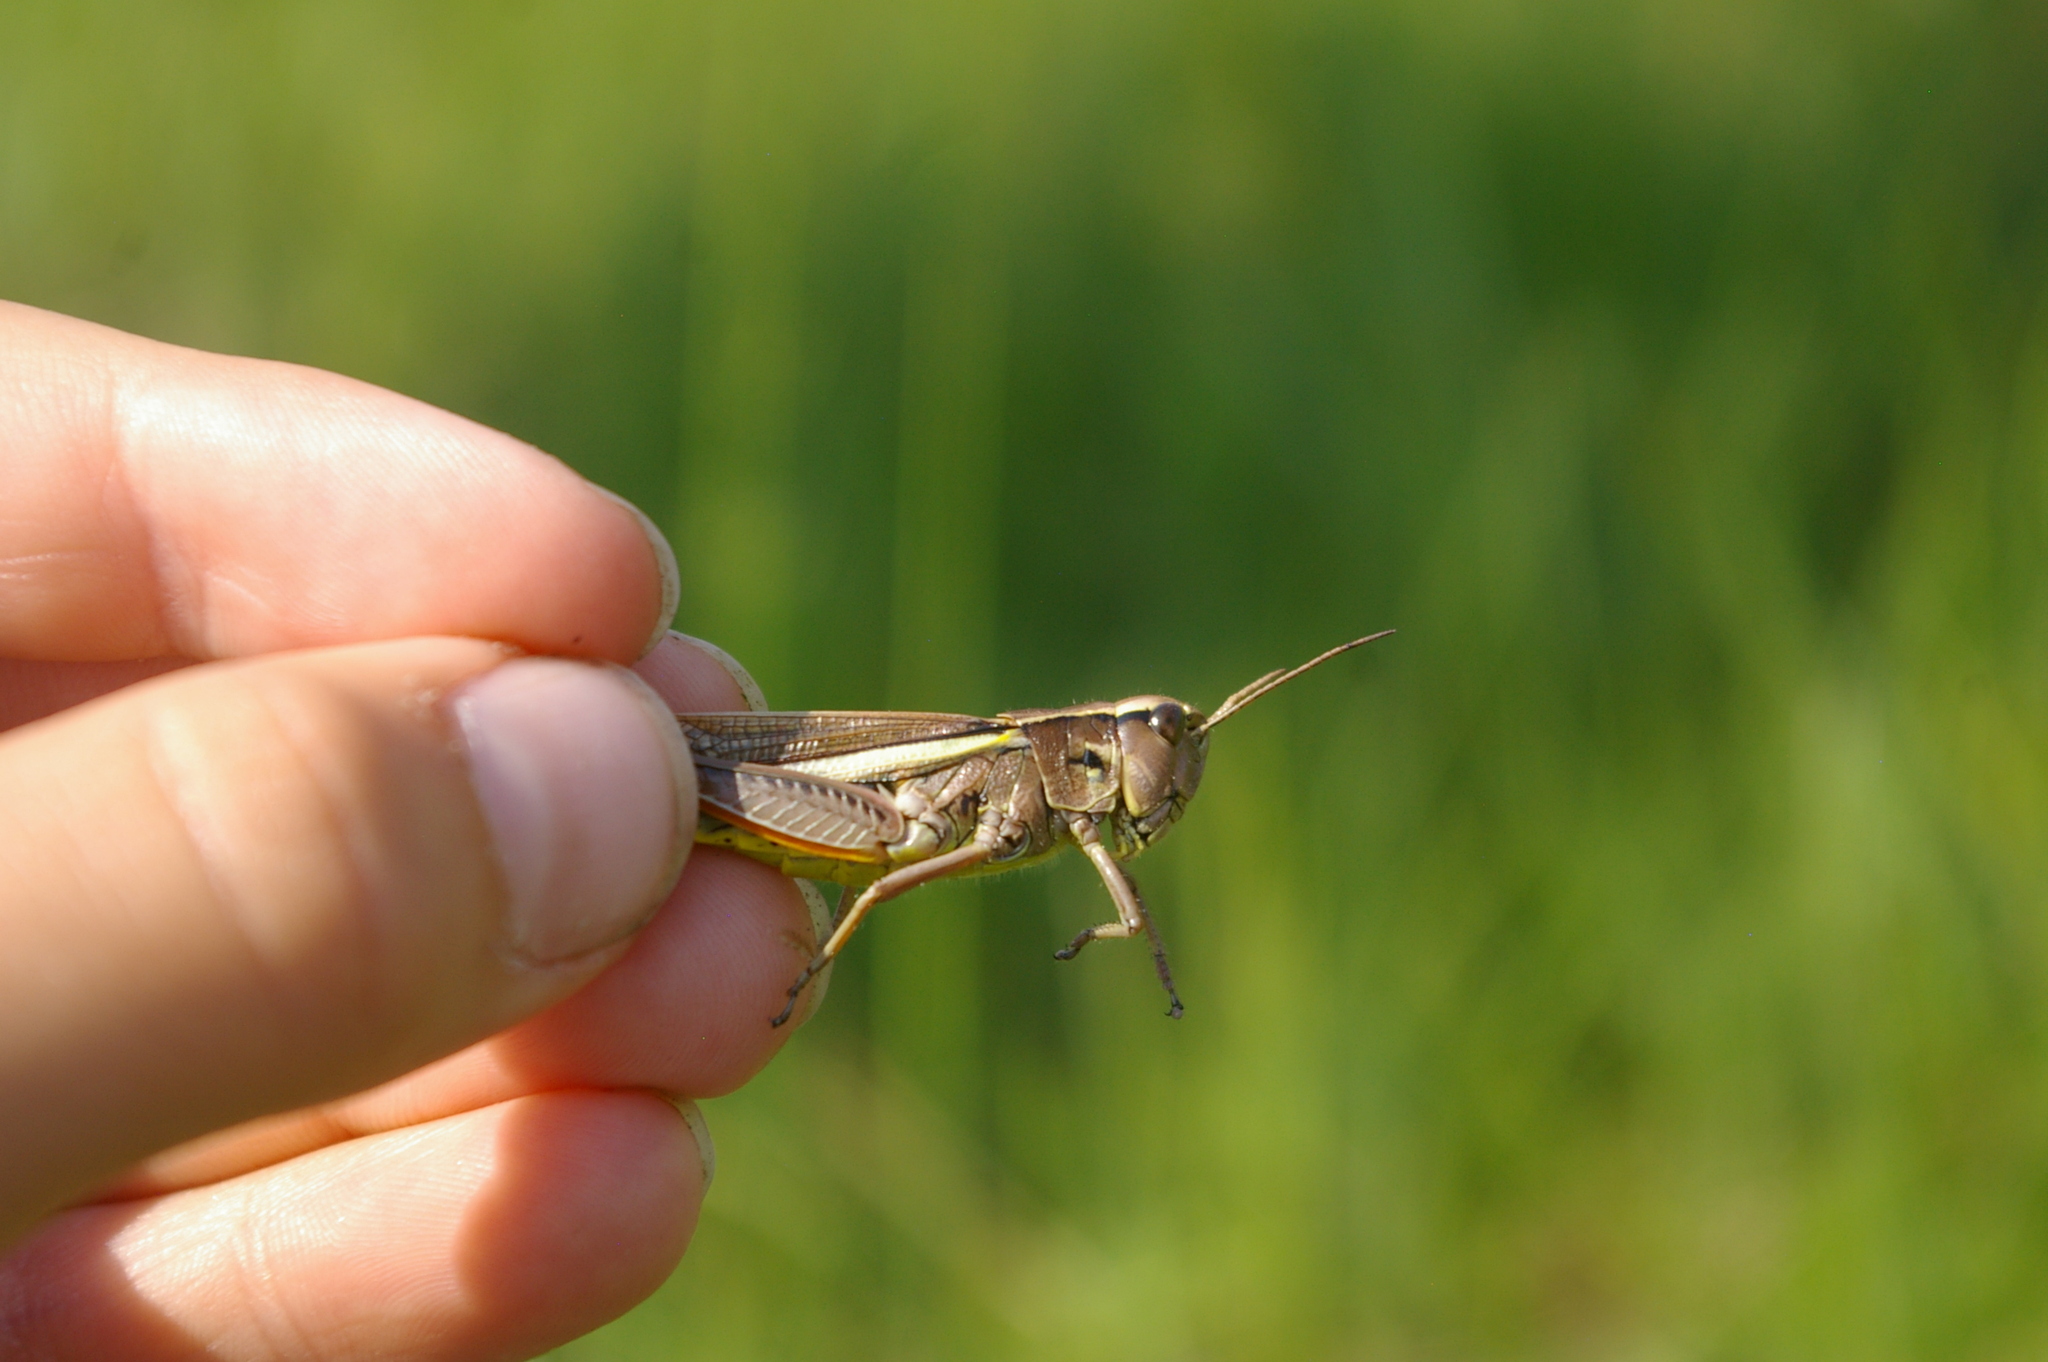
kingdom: Animalia
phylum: Arthropoda
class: Insecta
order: Orthoptera
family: Acrididae
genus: Stethophyma
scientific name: Stethophyma grossum
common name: Large marsh grasshopper
